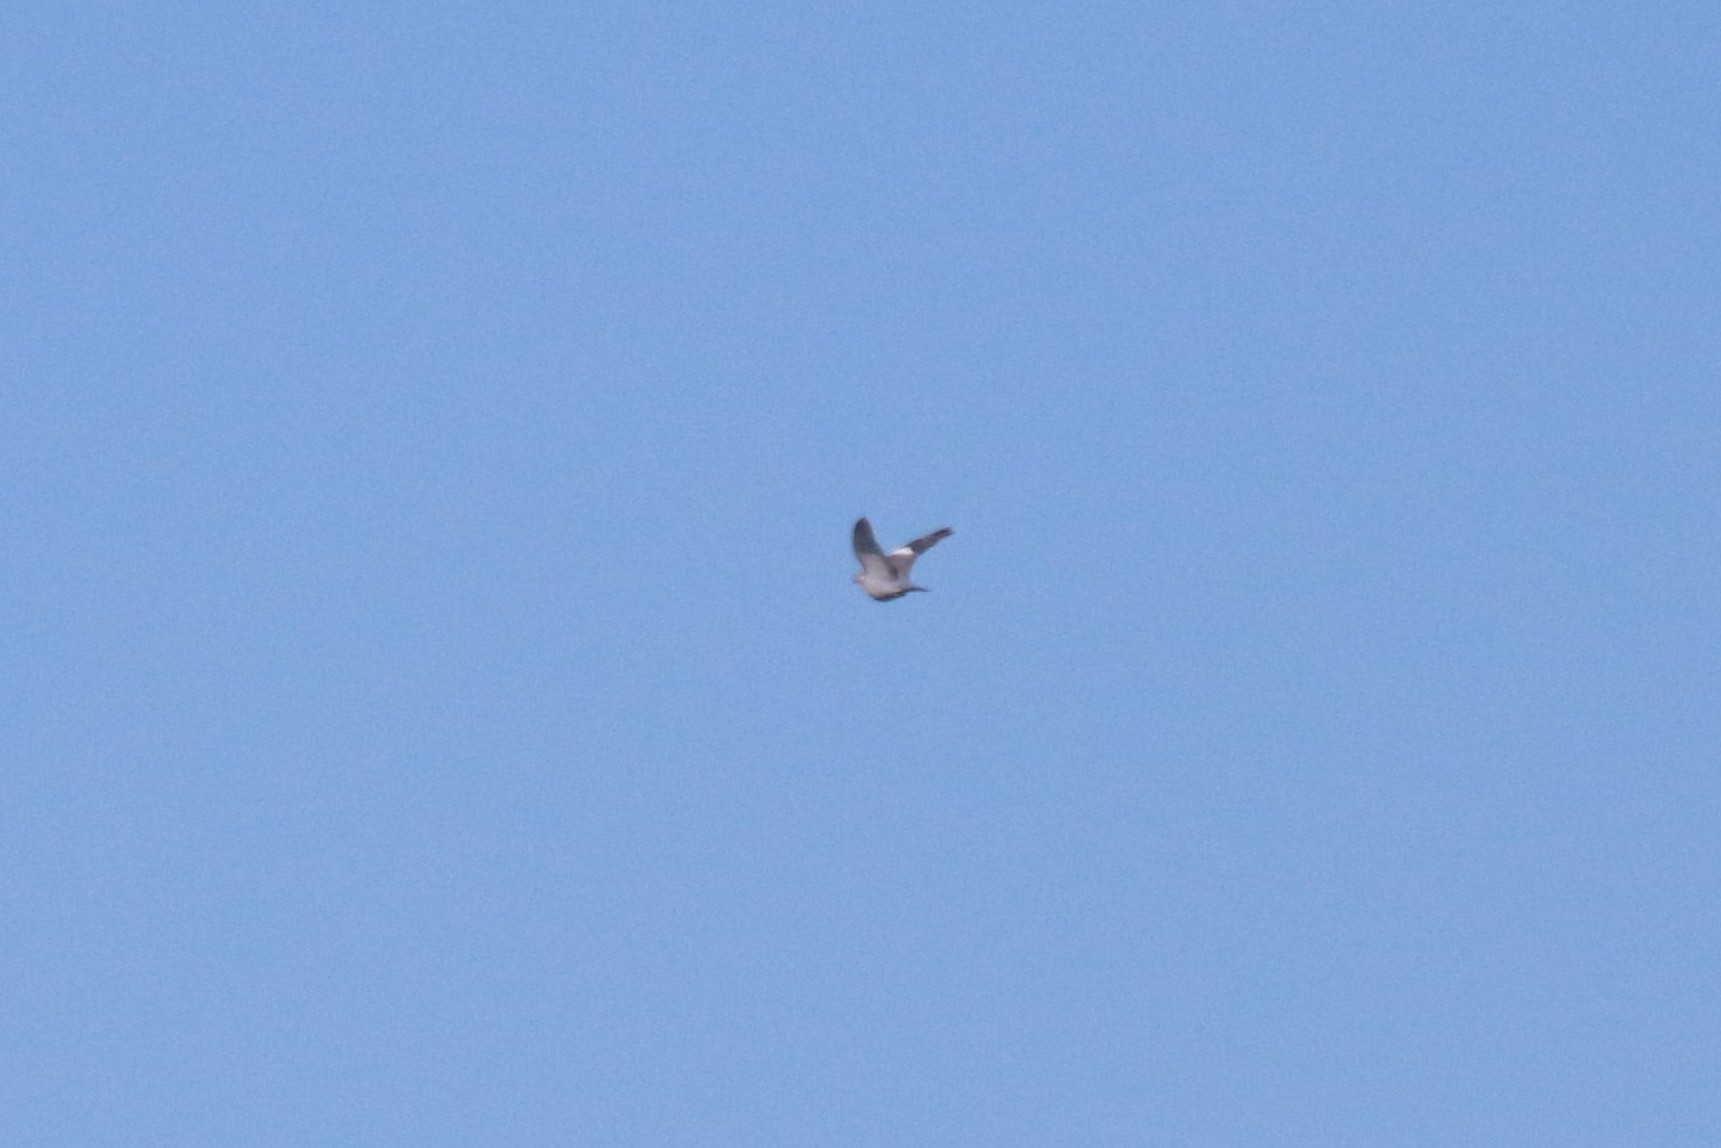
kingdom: Animalia
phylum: Chordata
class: Aves
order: Columbiformes
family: Columbidae
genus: Columba
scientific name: Columba palumbus
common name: Common wood pigeon
